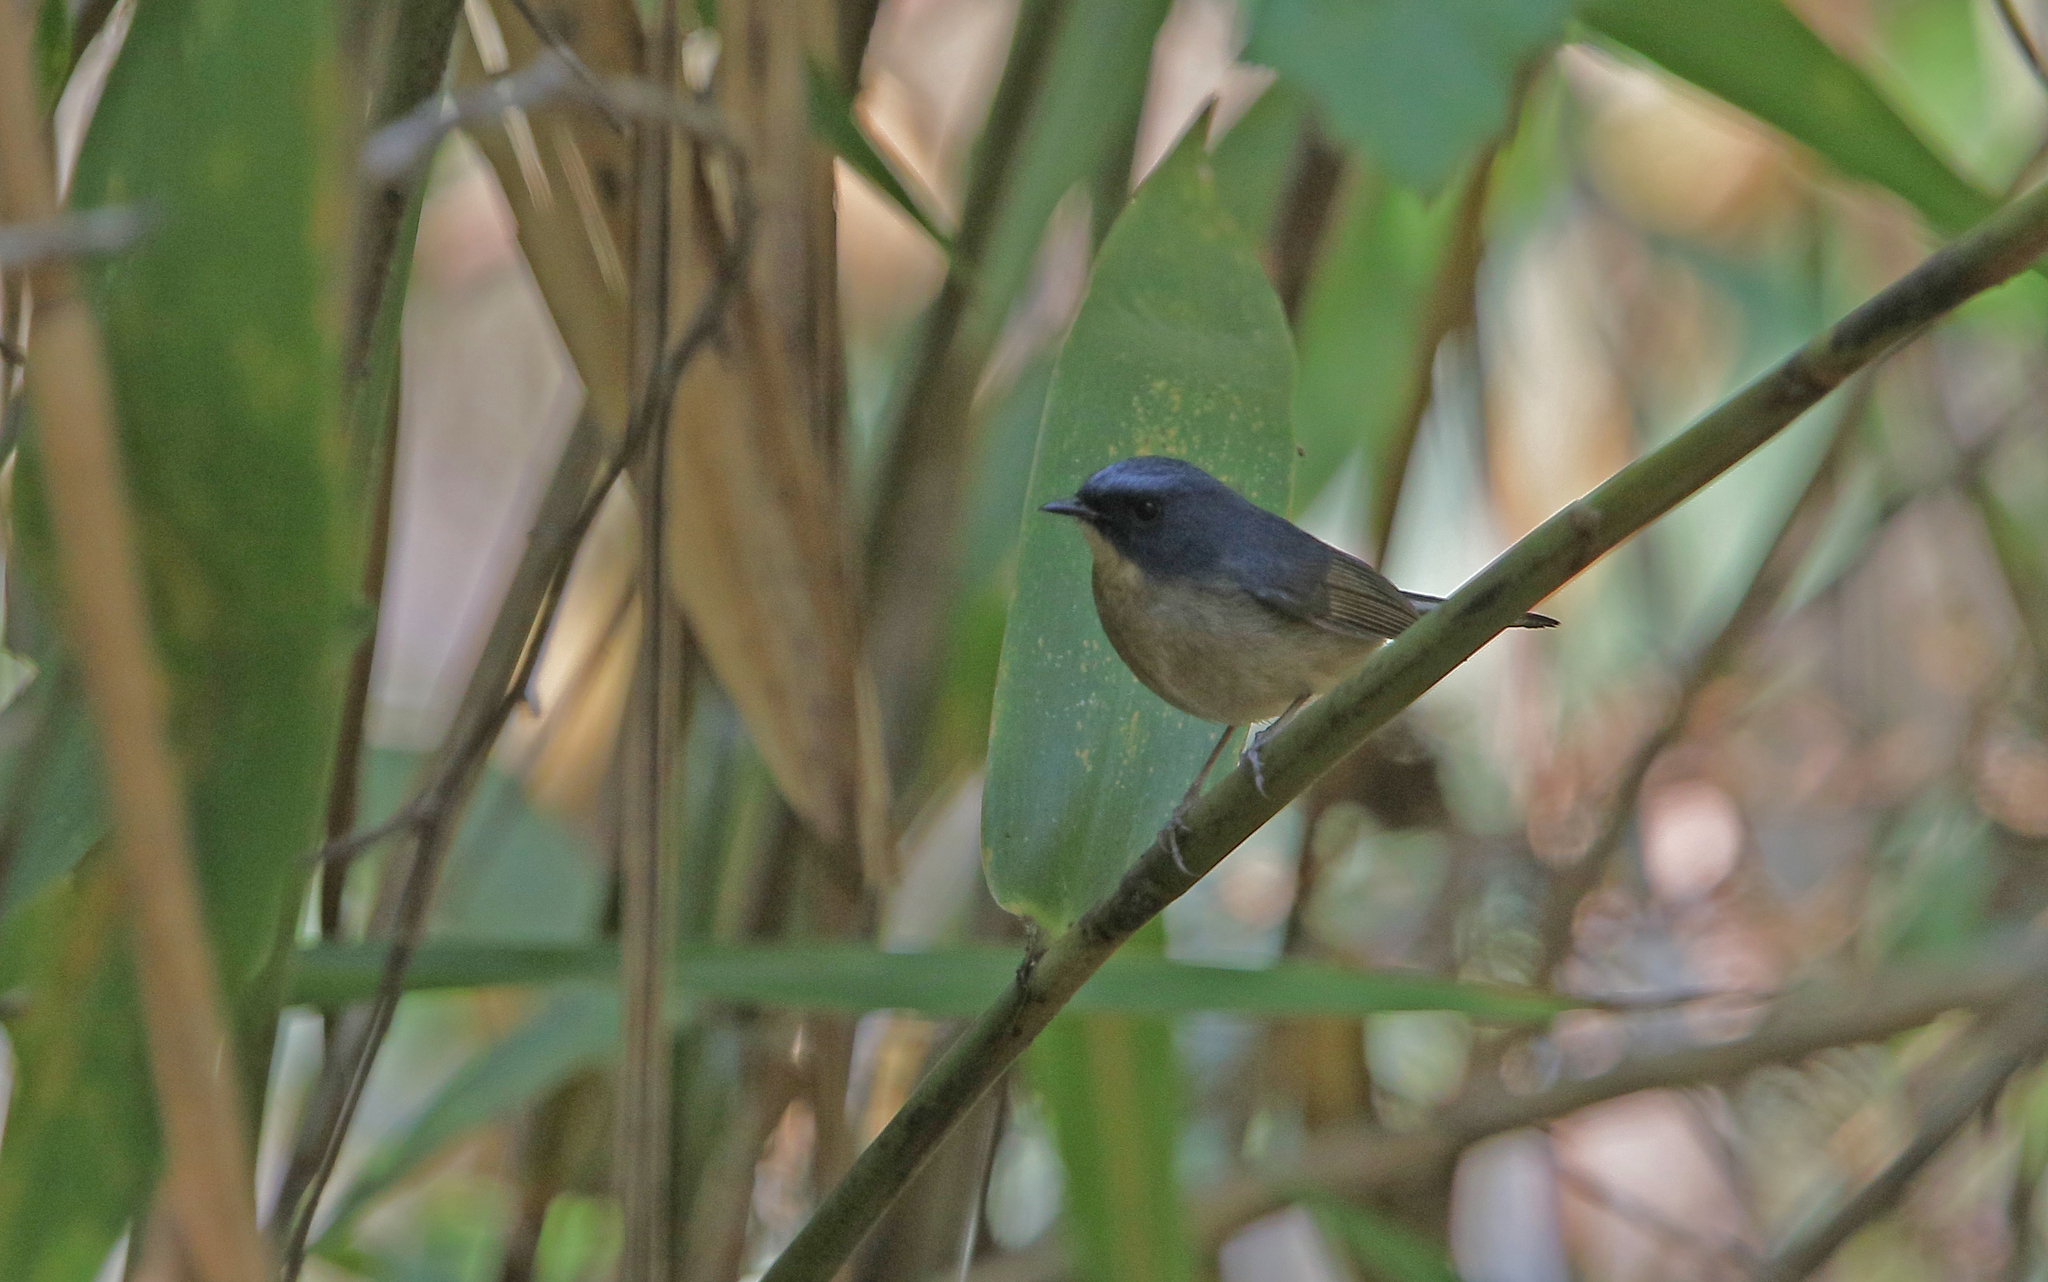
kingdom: Animalia
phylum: Chordata
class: Aves
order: Passeriformes
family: Muscicapidae
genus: Ficedula
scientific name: Ficedula tricolor
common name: Slaty-blue flycatcher
